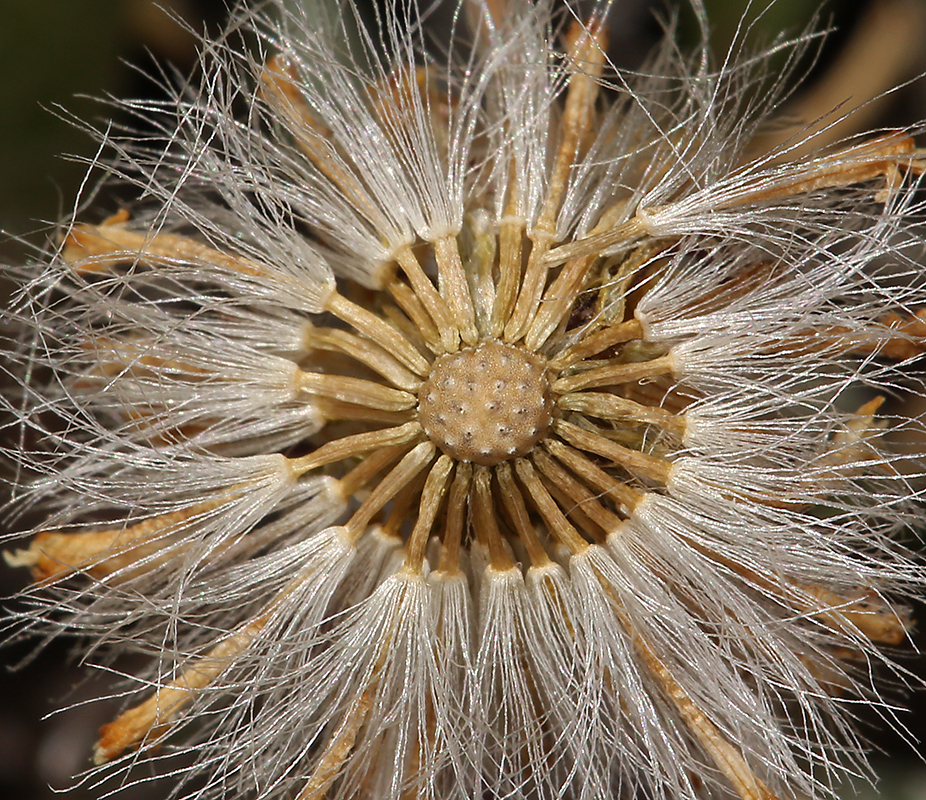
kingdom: Plantae
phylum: Tracheophyta
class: Magnoliopsida
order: Asterales
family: Asteraceae
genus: Packera
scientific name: Packera werneriifolia
